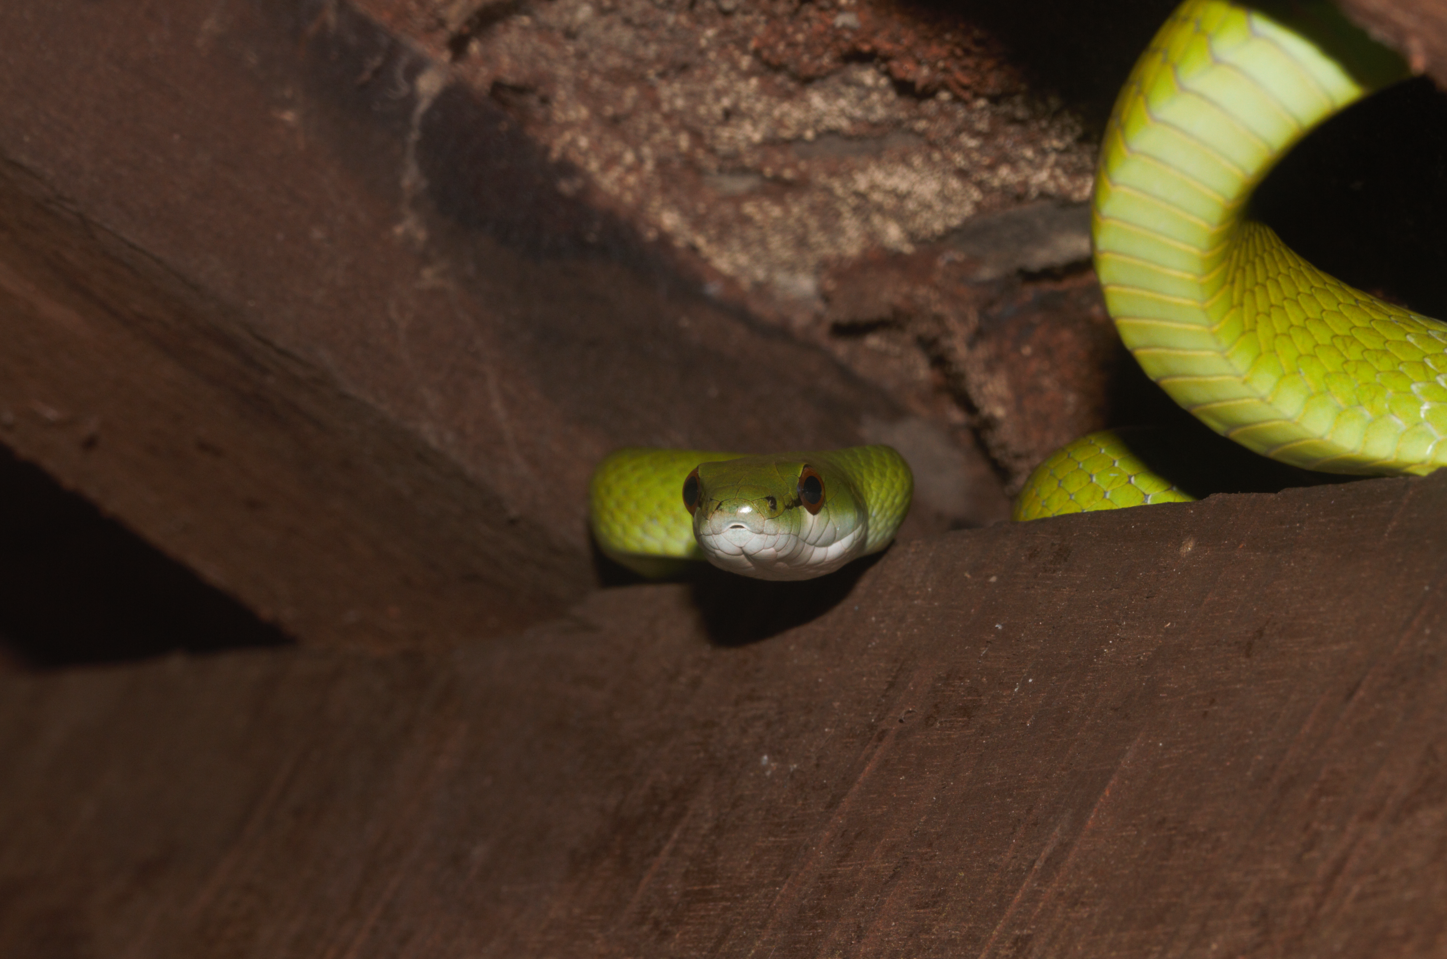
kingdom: Animalia
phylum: Chordata
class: Squamata
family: Colubridae
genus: Chlorosoma
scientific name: Chlorosoma viridissimum
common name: Common green racer
